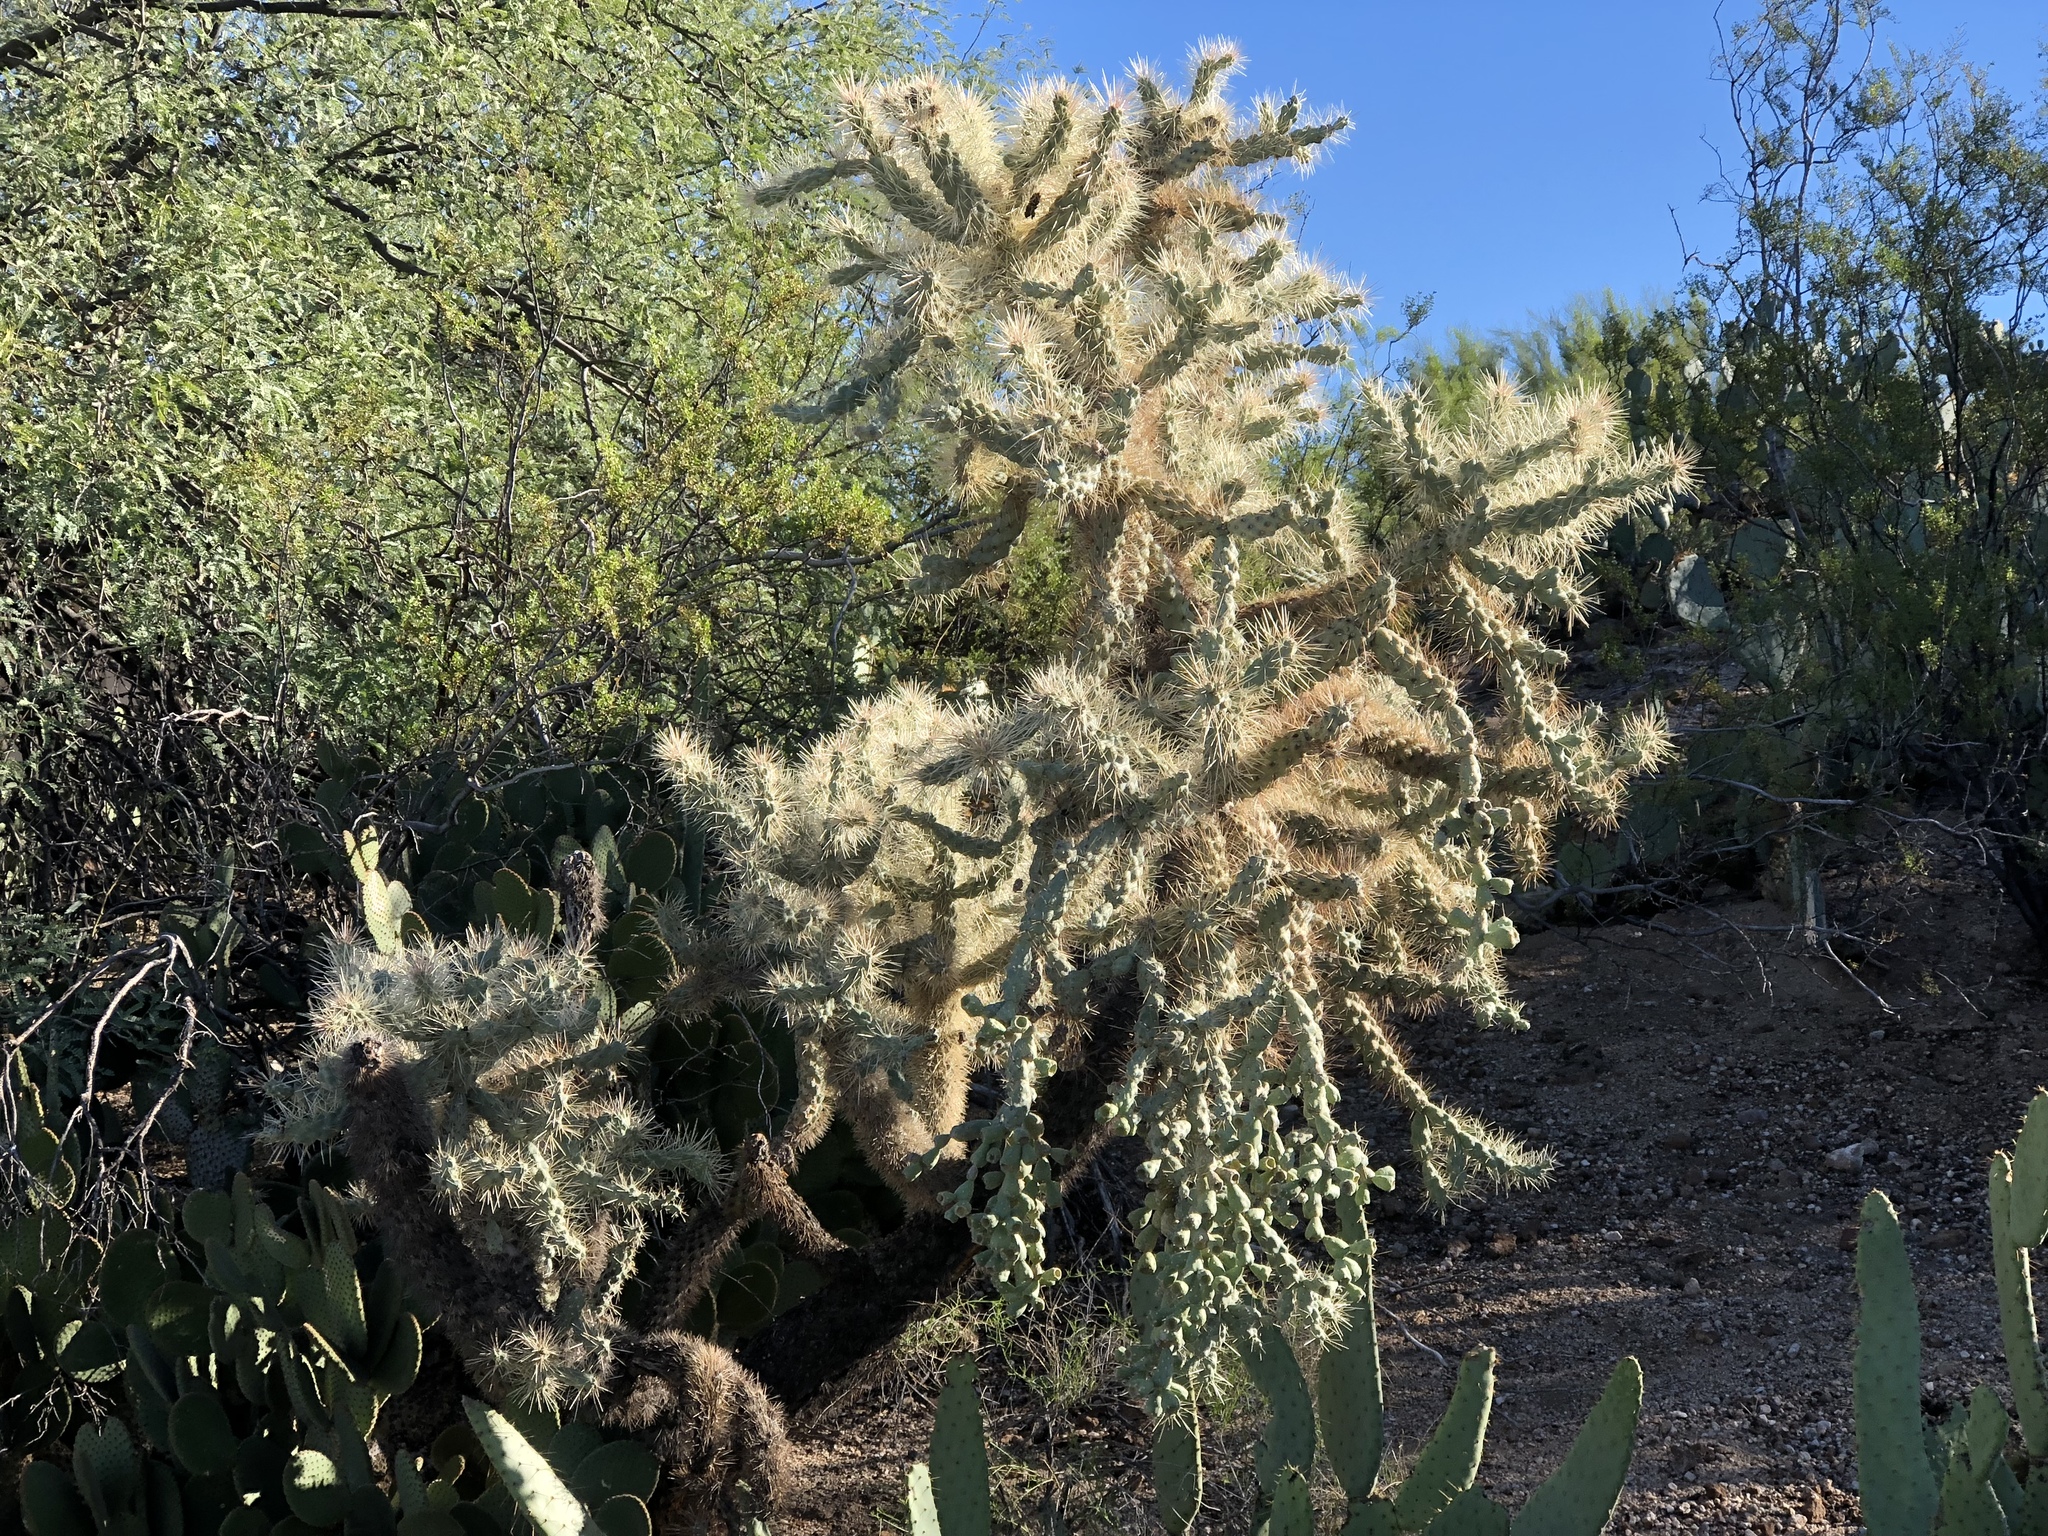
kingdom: Plantae
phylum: Tracheophyta
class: Magnoliopsida
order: Caryophyllales
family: Cactaceae
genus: Cylindropuntia
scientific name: Cylindropuntia fulgida
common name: Jumping cholla
